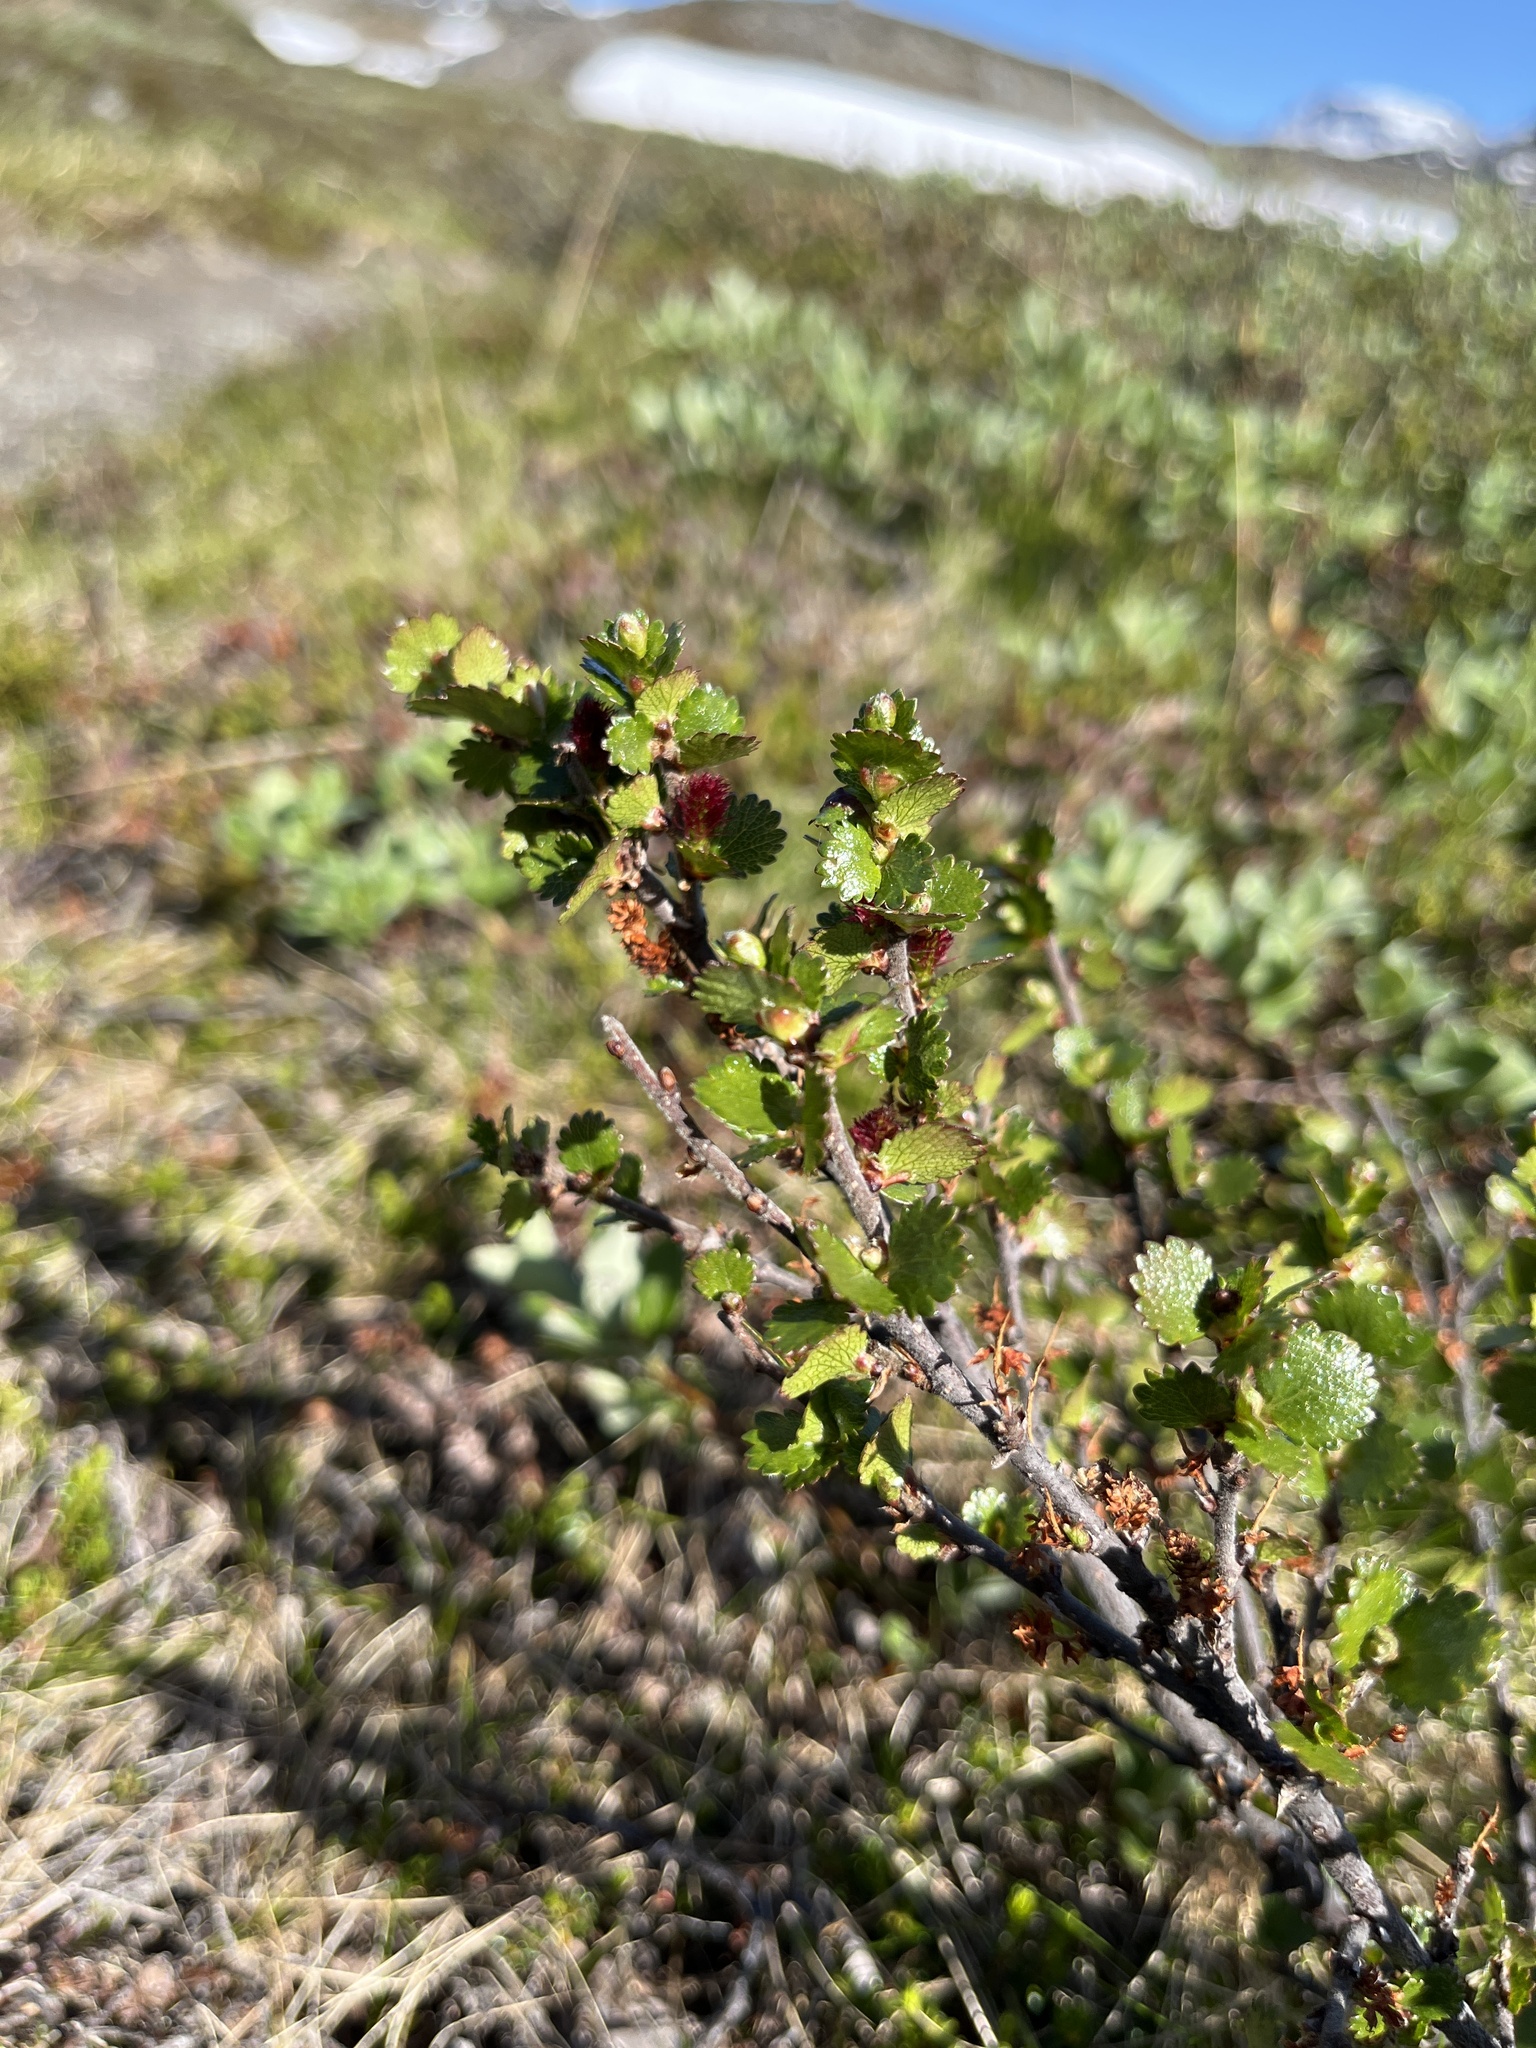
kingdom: Plantae
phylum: Tracheophyta
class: Magnoliopsida
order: Fagales
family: Betulaceae
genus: Betula
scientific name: Betula nana
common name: Arctic dwarf birch
